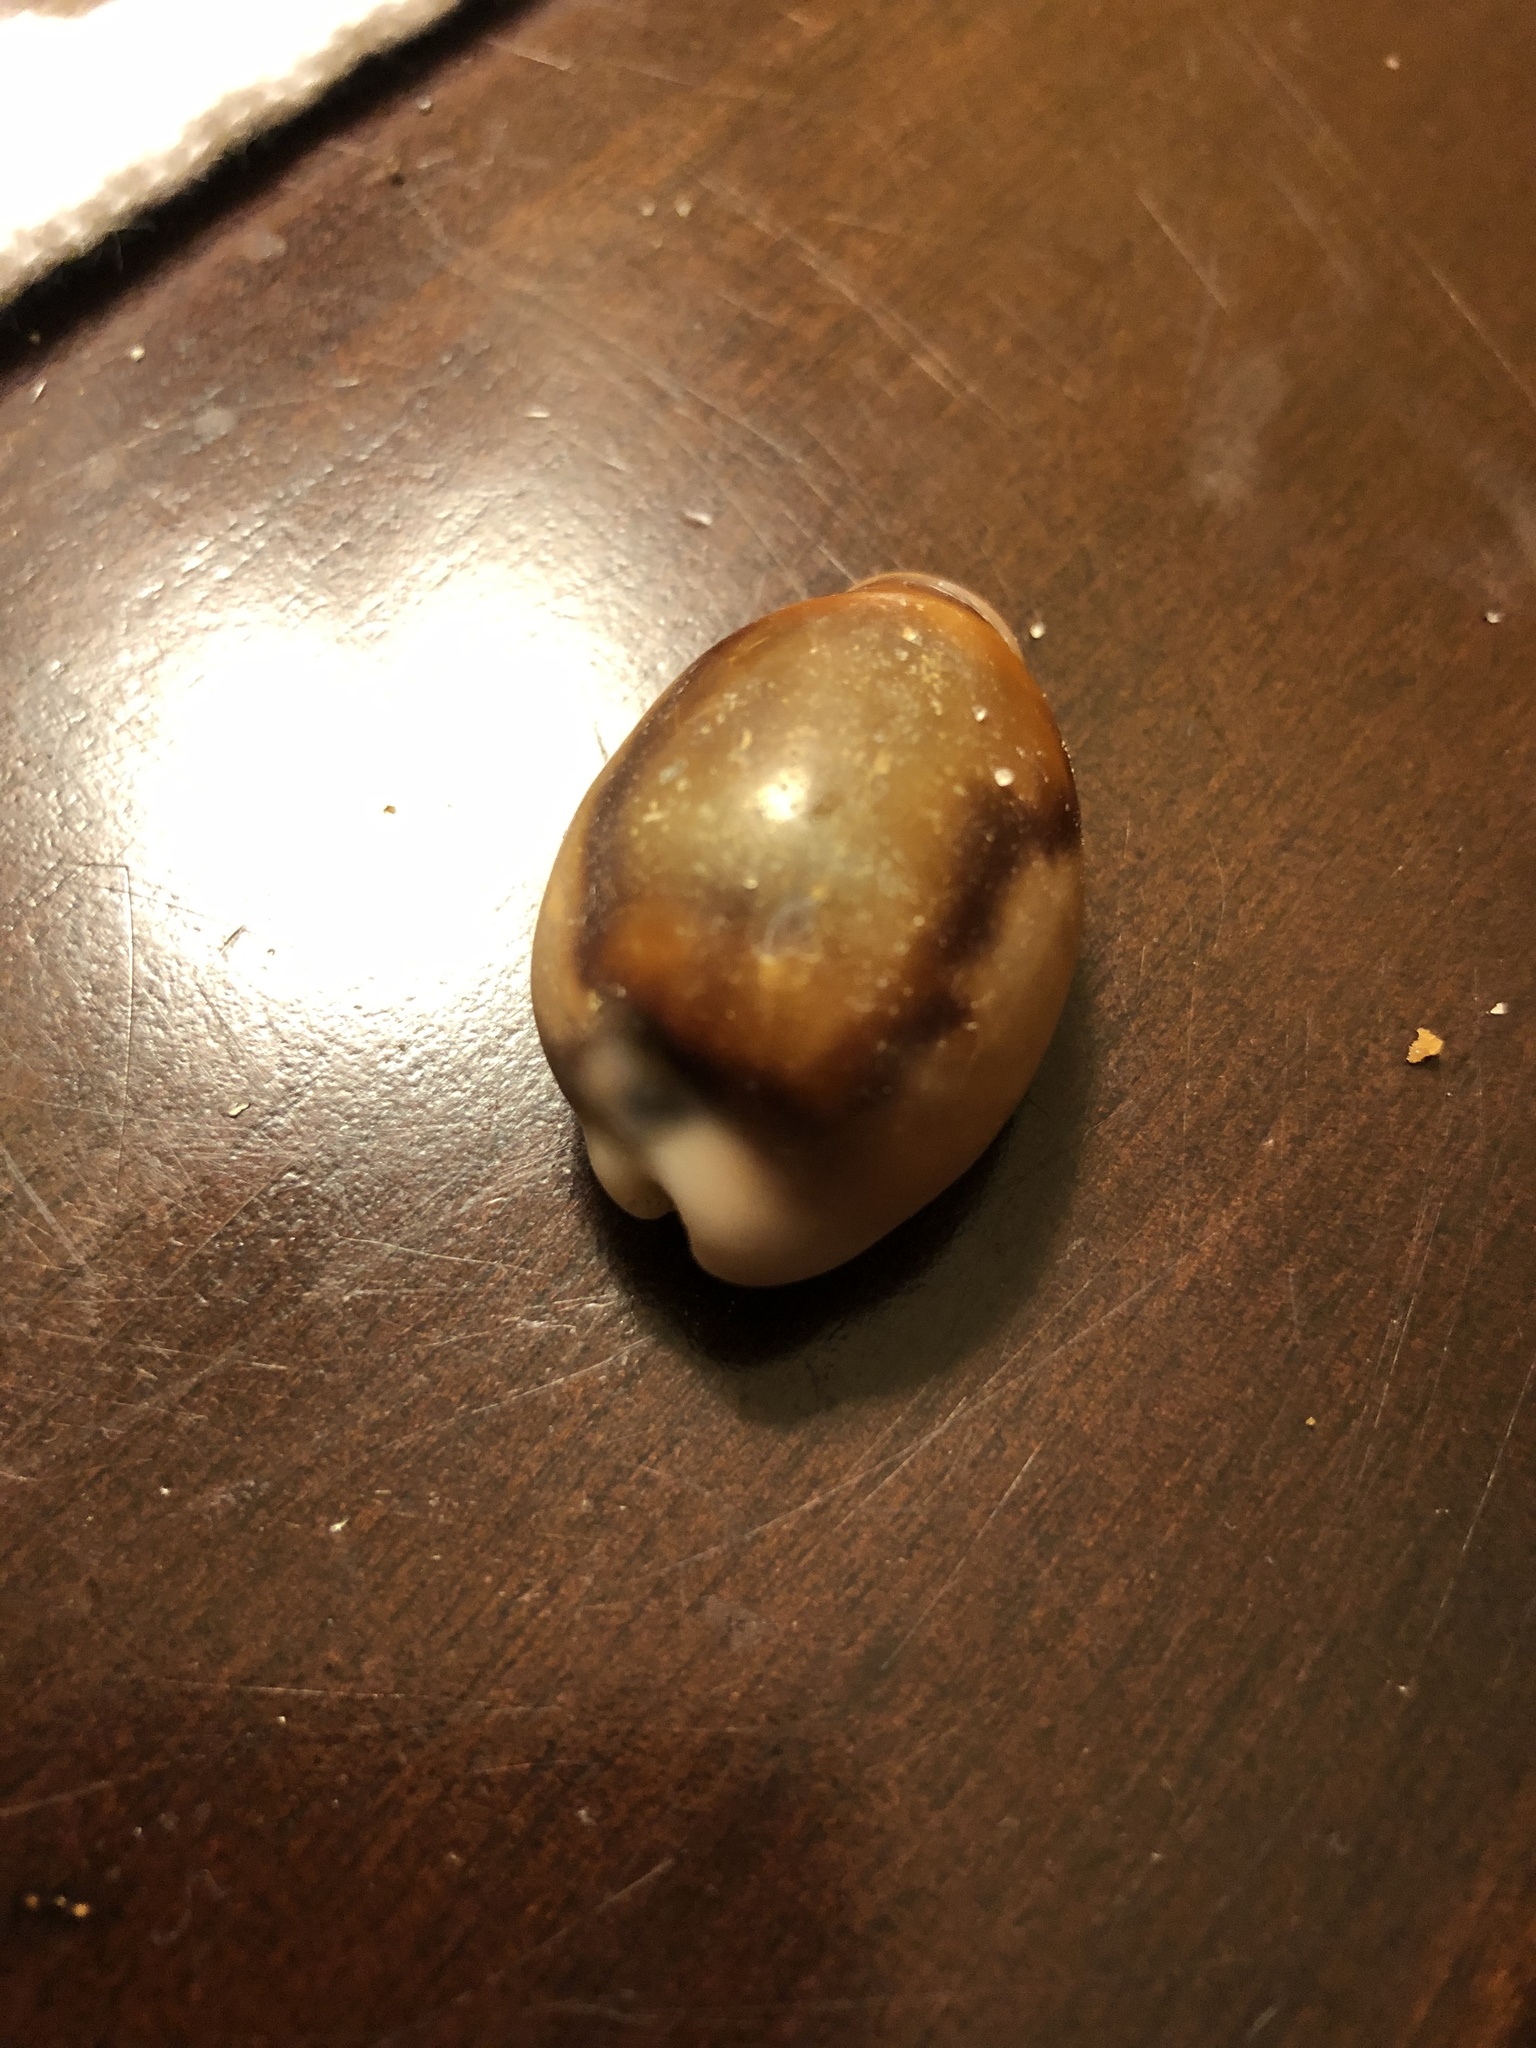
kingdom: Animalia
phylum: Mollusca
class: Gastropoda
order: Littorinimorpha
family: Cypraeidae
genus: Neobernaya
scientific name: Neobernaya spadicea
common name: Chestnut cowrie
